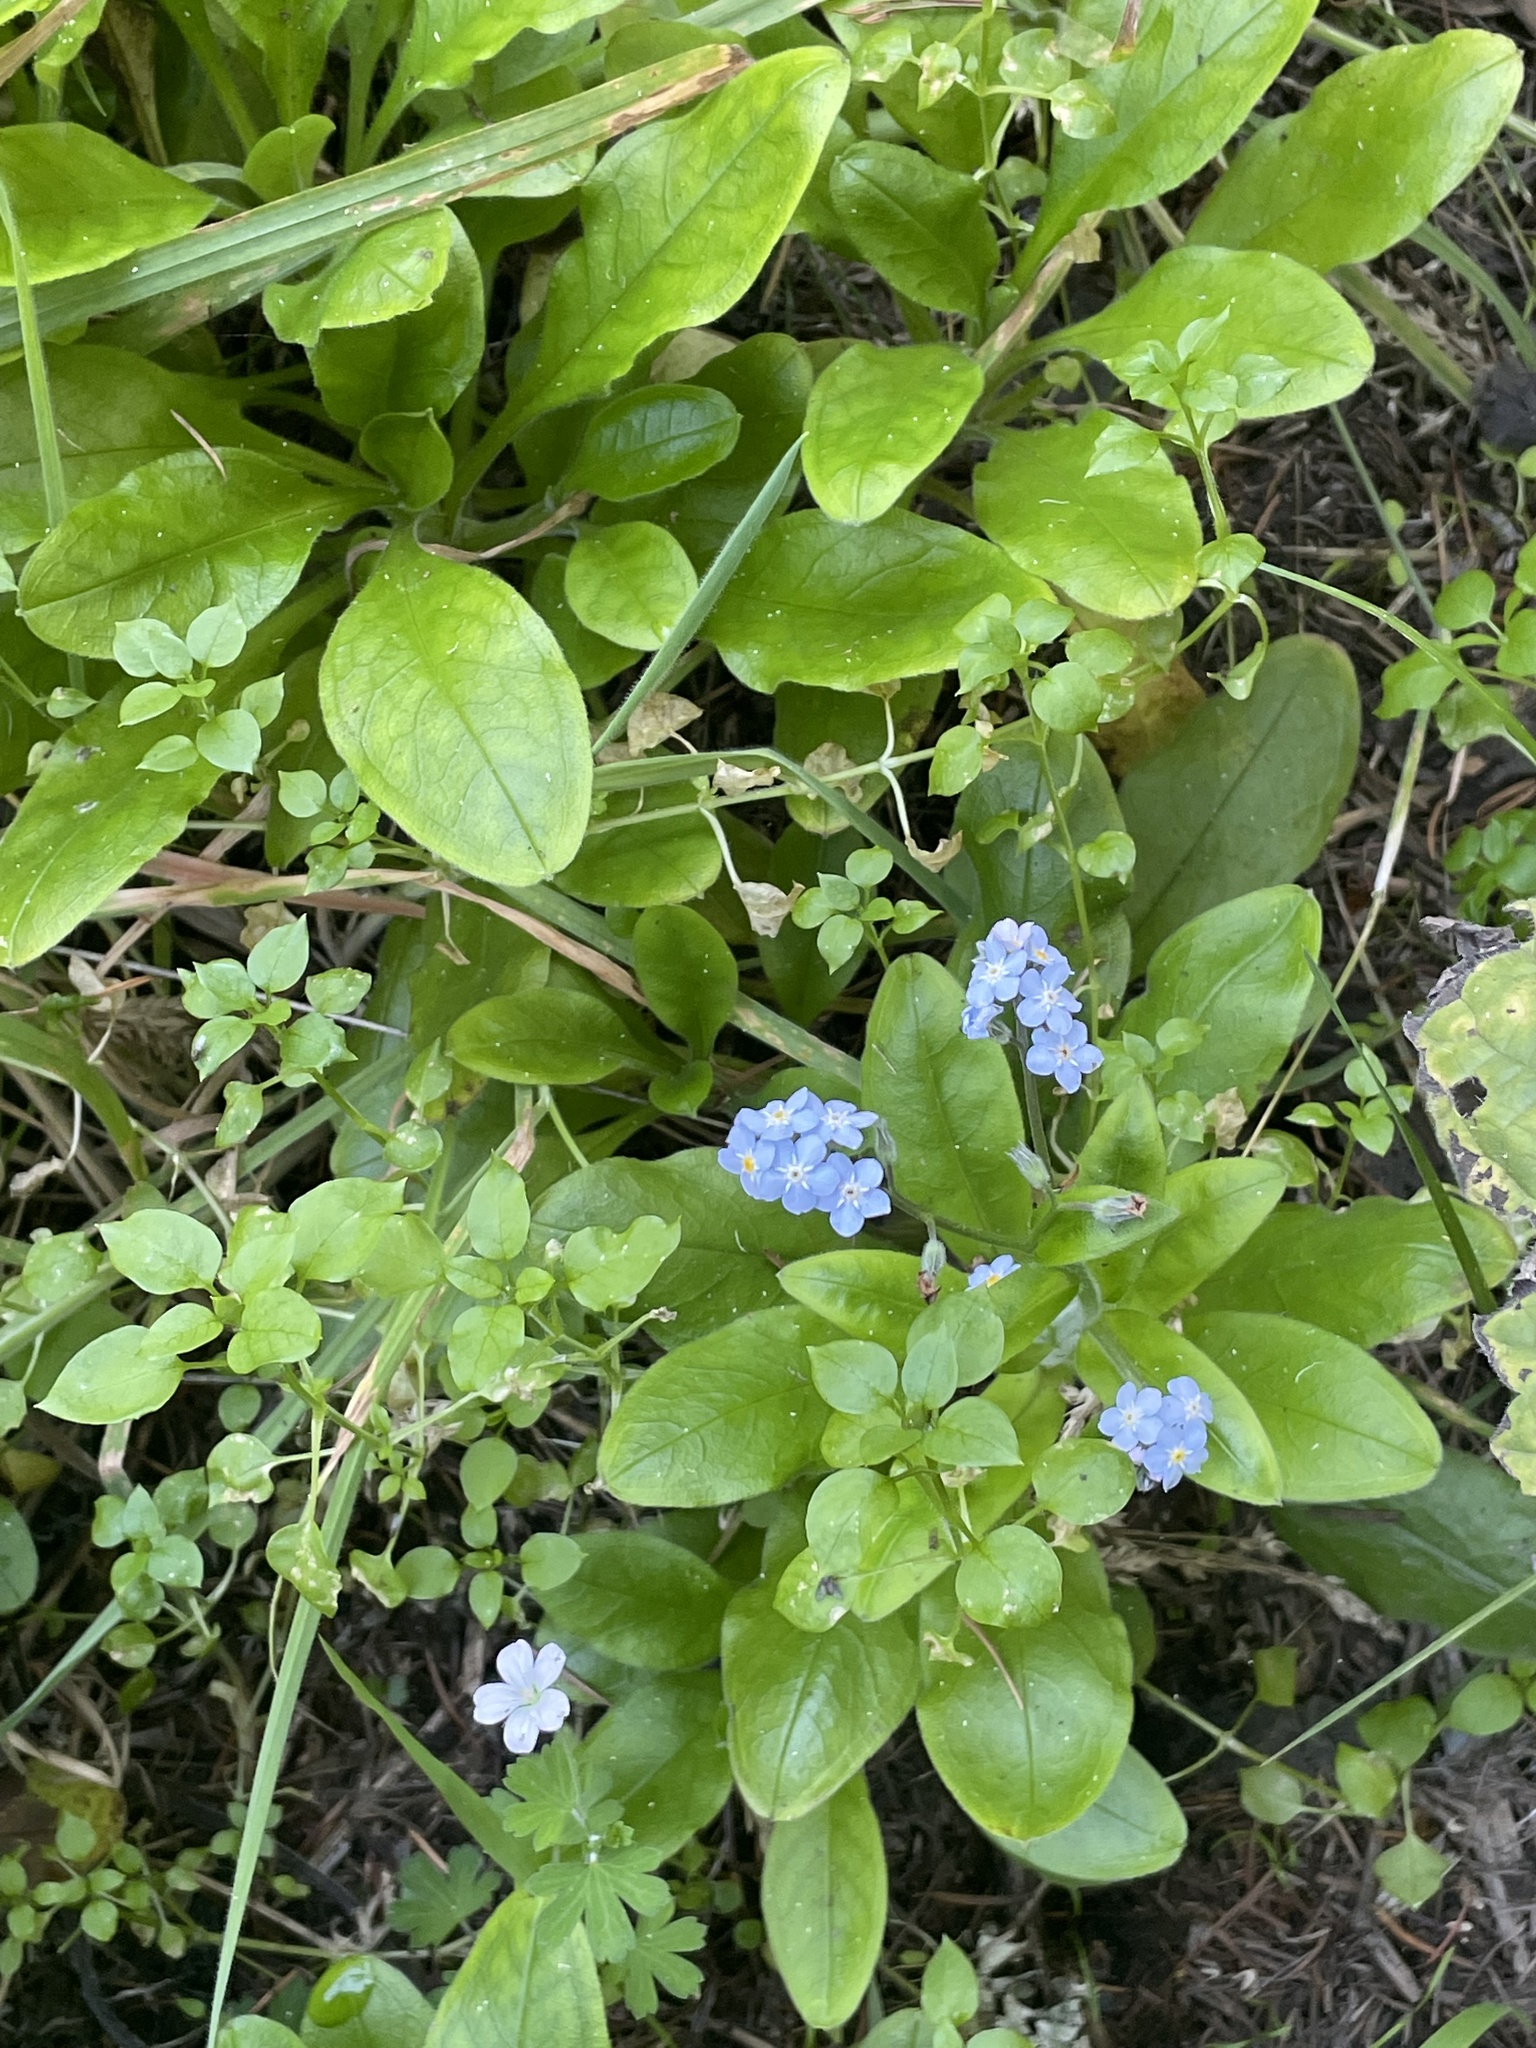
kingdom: Plantae
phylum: Tracheophyta
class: Magnoliopsida
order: Boraginales
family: Boraginaceae
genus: Myosotis
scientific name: Myosotis latifolia
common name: Broadleaf forget-me-not
